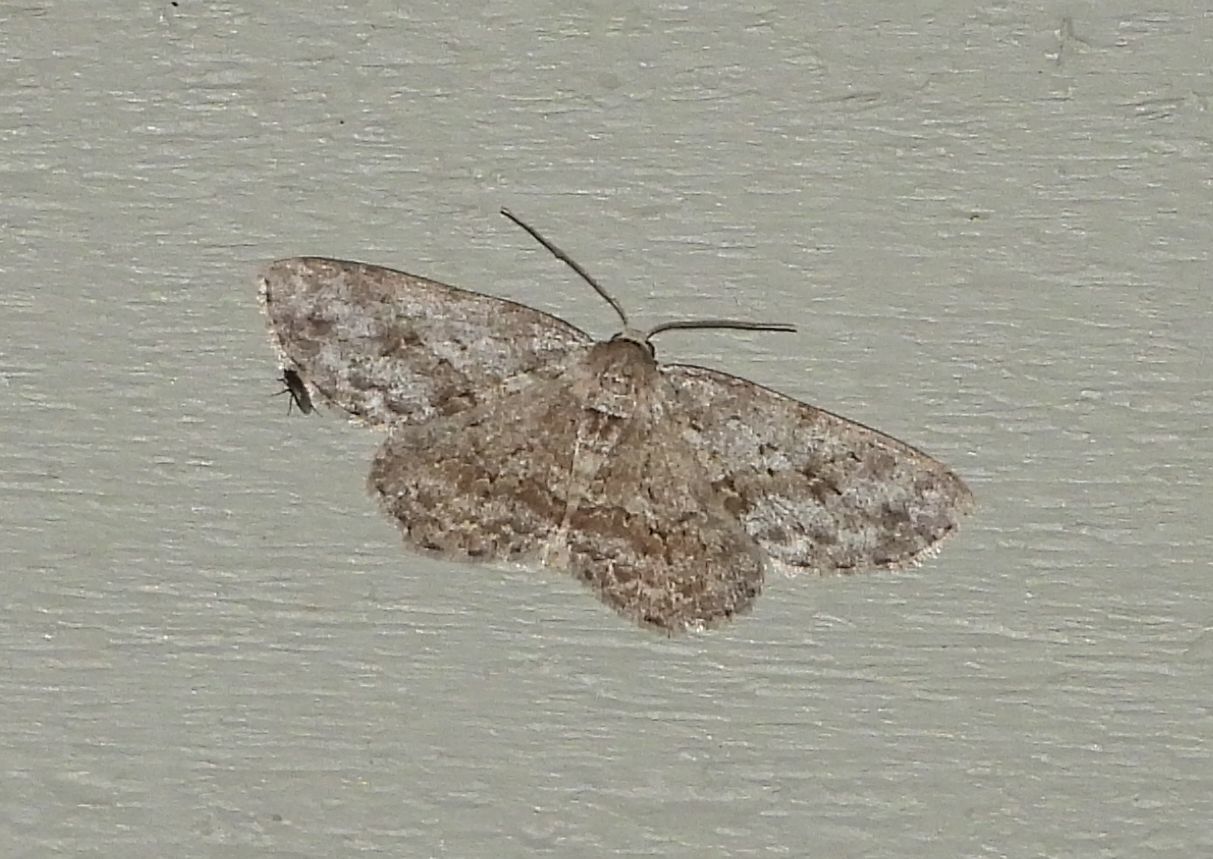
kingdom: Animalia
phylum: Arthropoda
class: Insecta
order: Lepidoptera
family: Geometridae
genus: Ectropis
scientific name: Ectropis crepuscularia
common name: Engrailed
